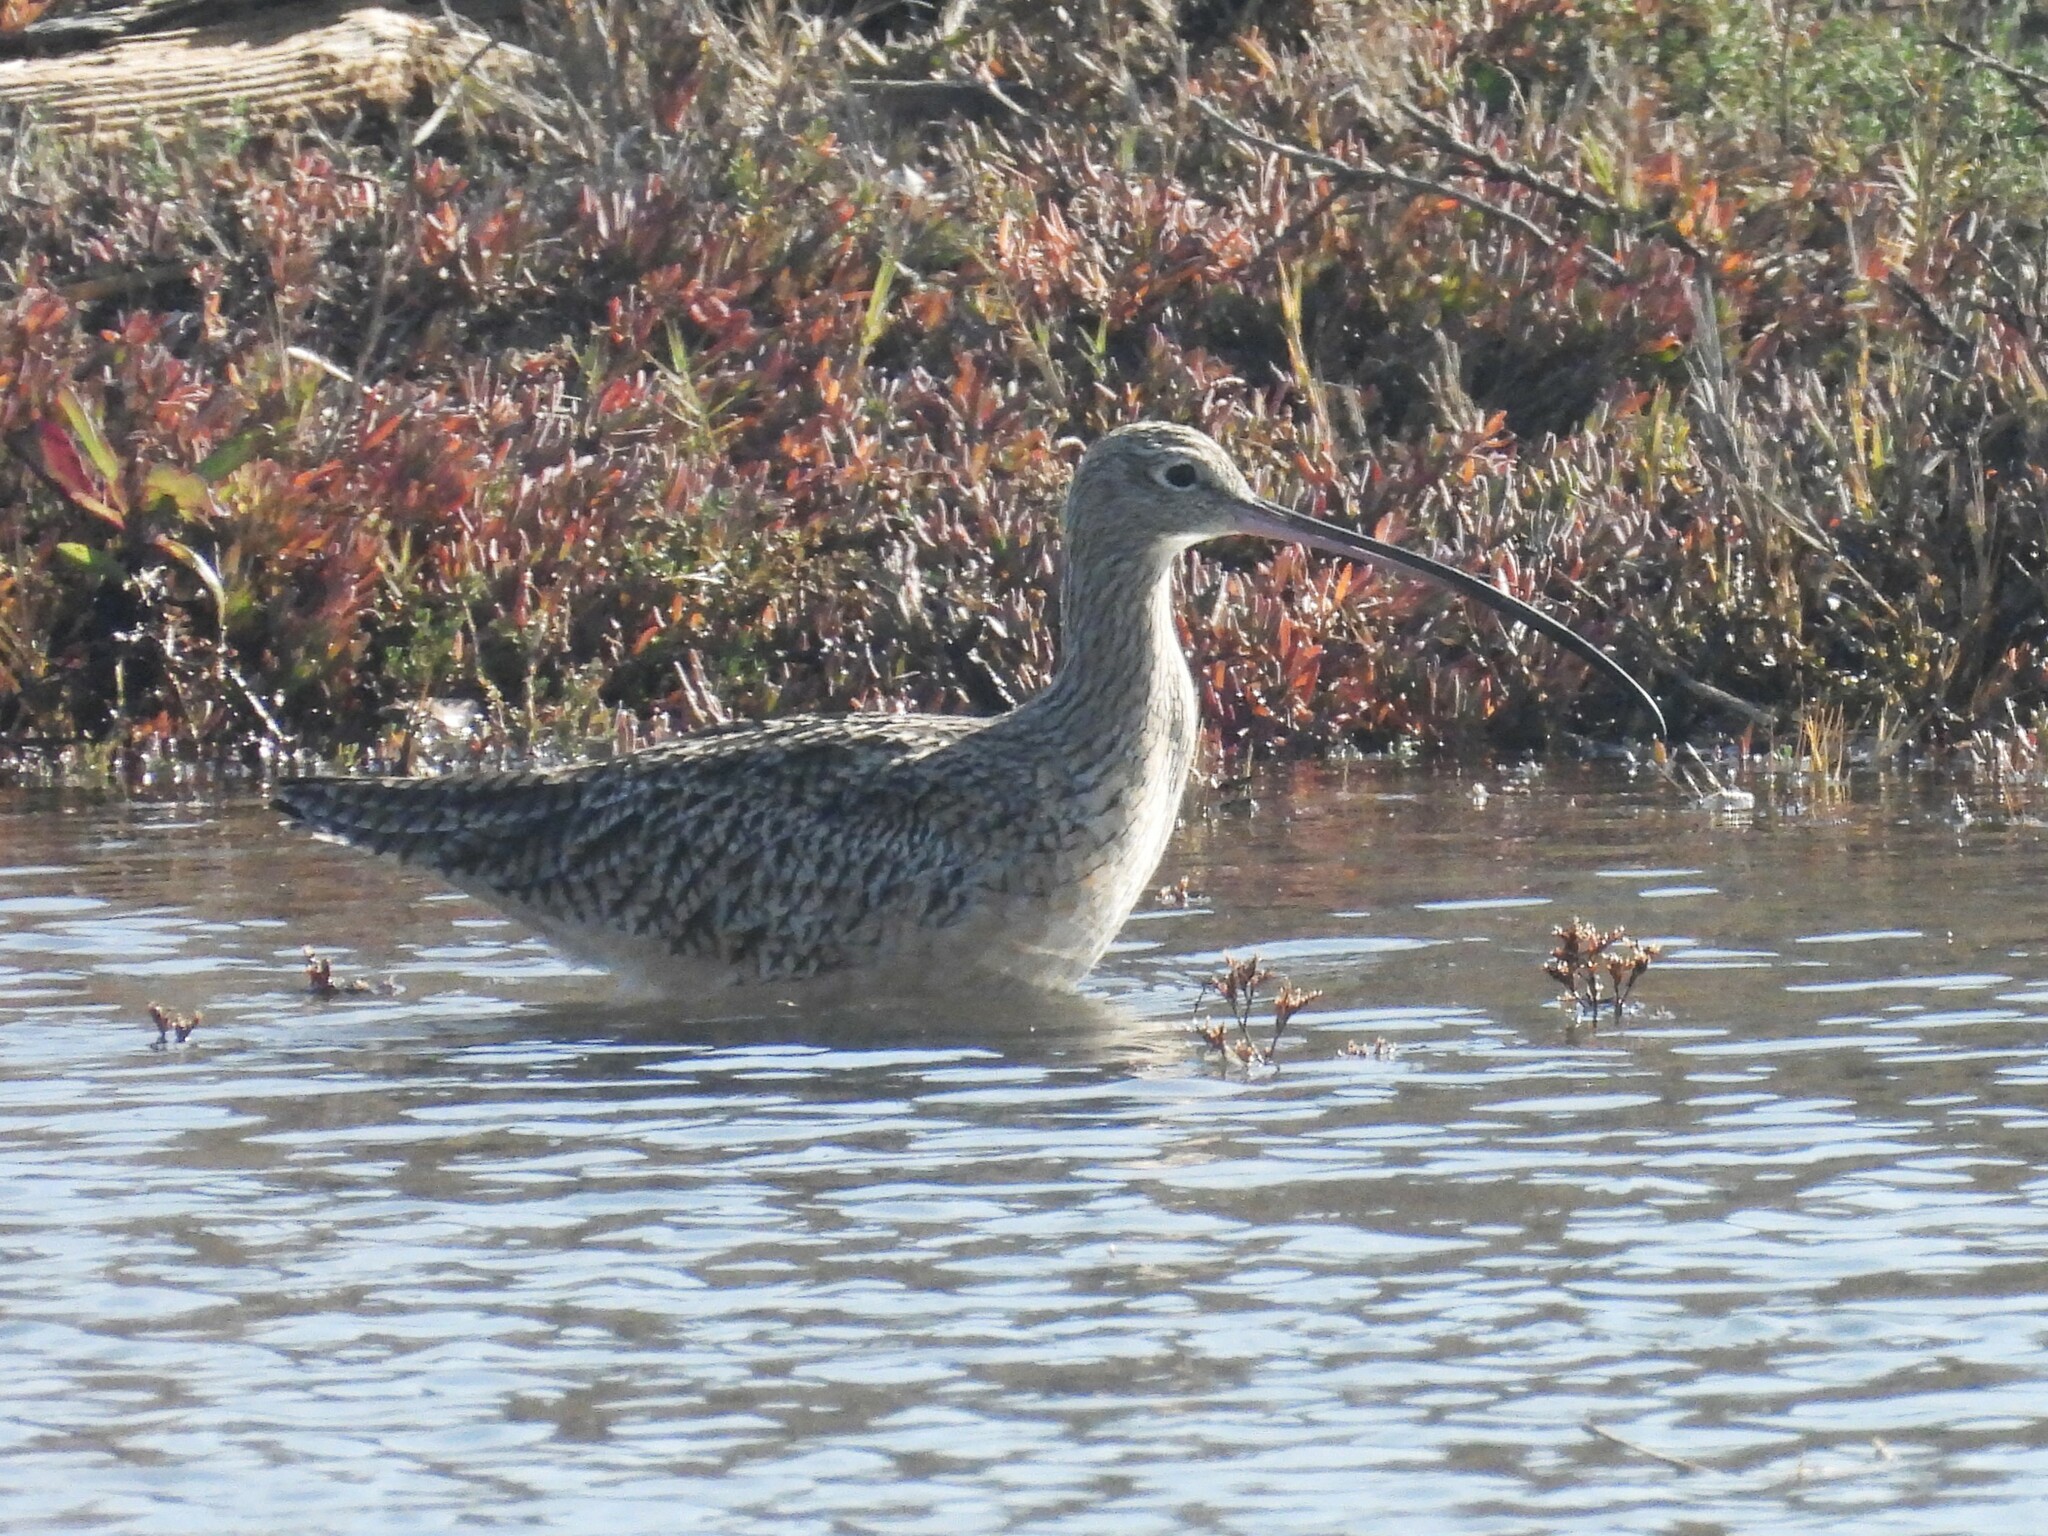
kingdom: Animalia
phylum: Chordata
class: Aves
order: Charadriiformes
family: Scolopacidae
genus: Numenius
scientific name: Numenius americanus
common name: Long-billed curlew
